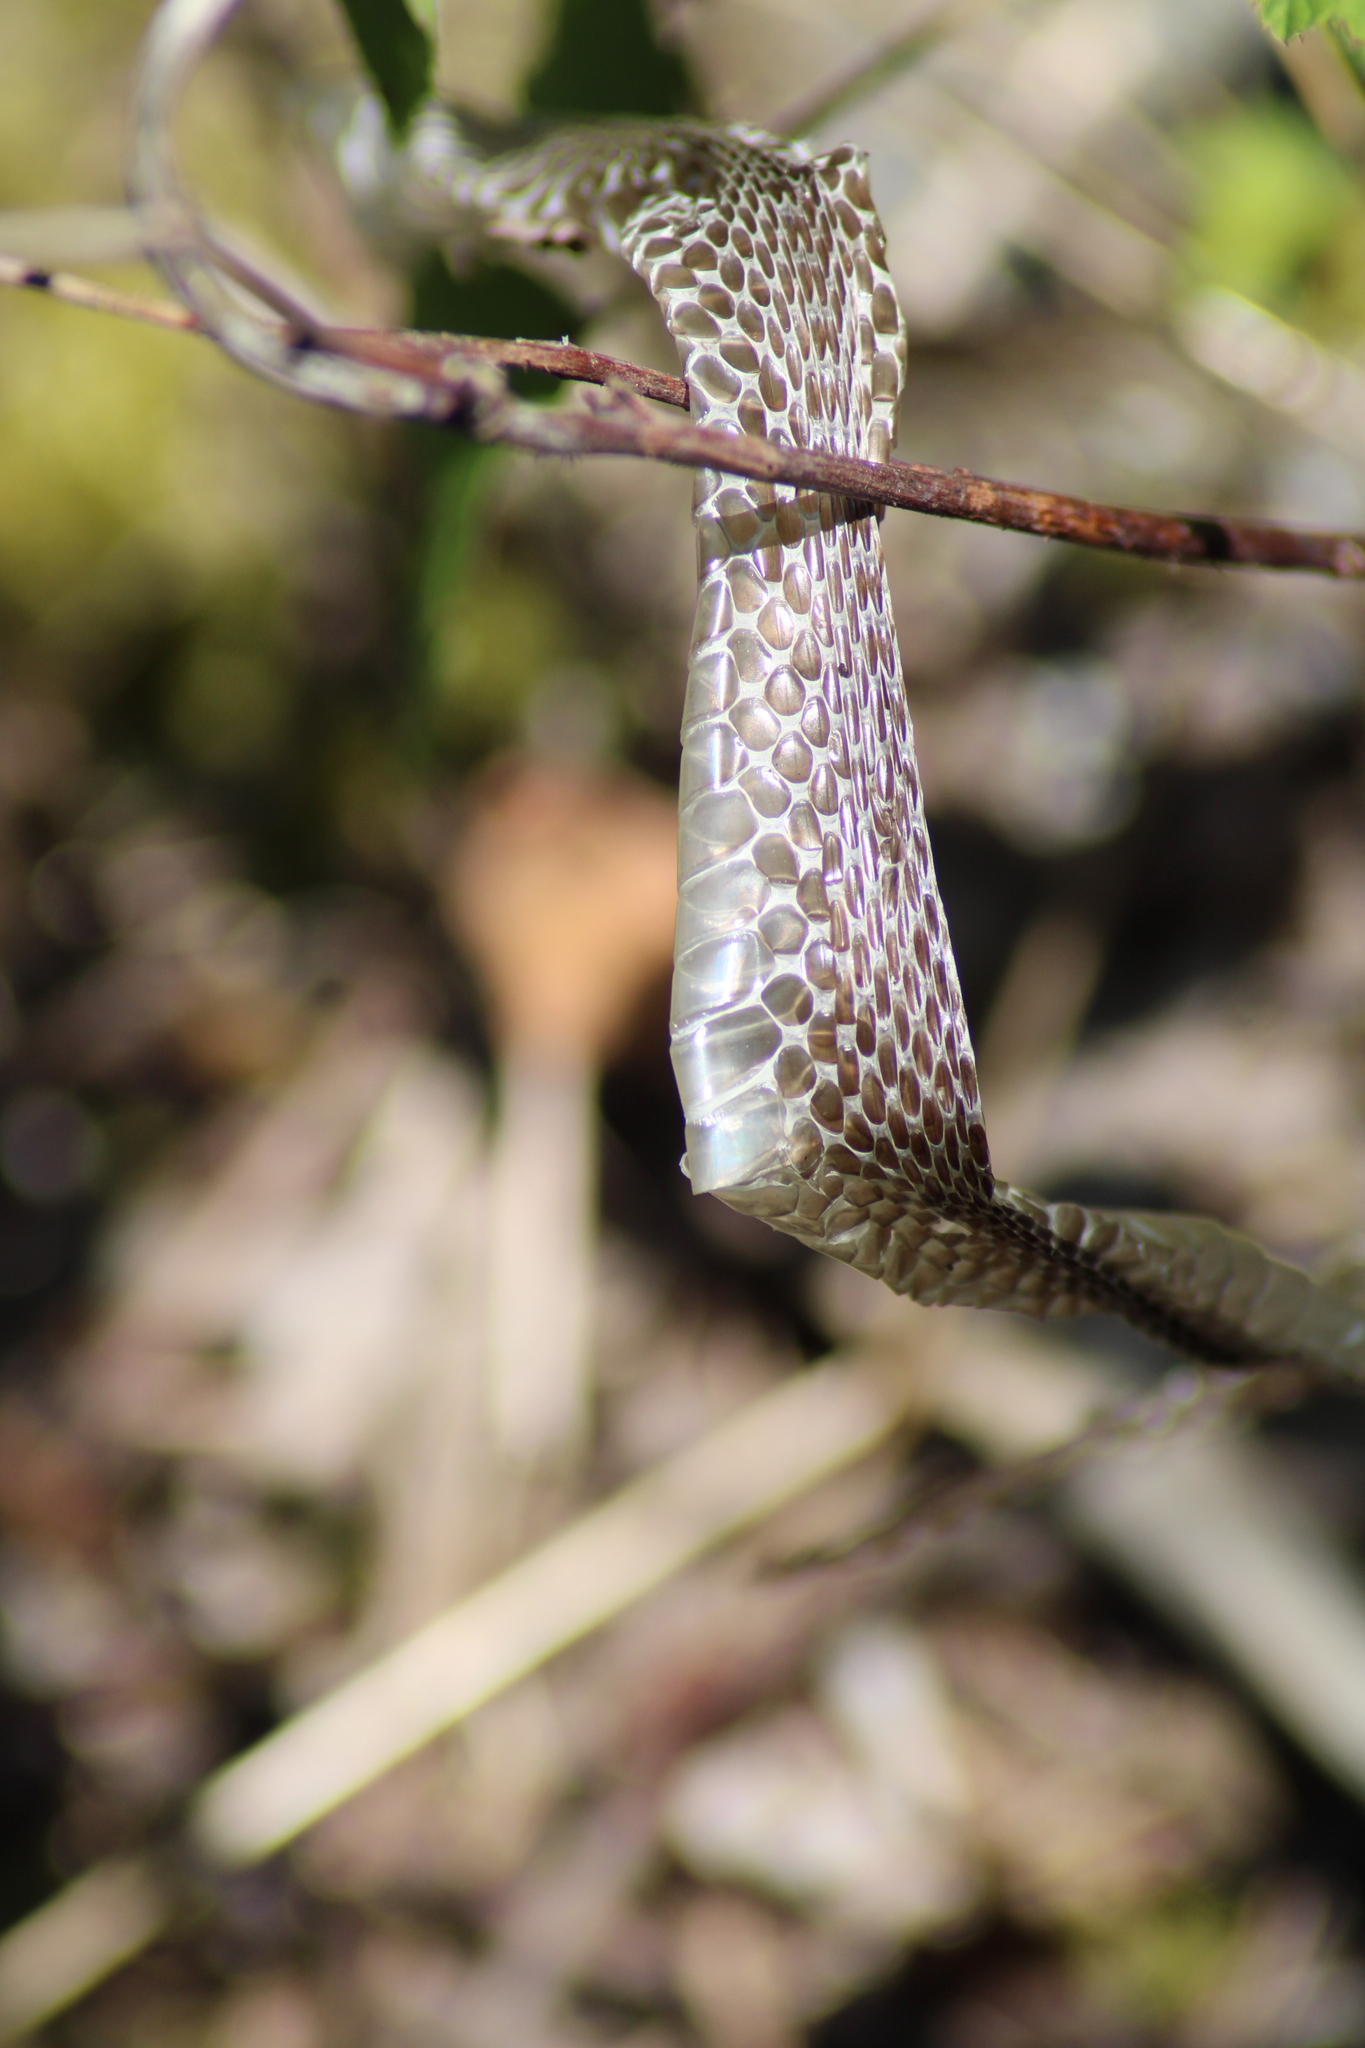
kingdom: Animalia
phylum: Chordata
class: Squamata
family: Colubridae
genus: Natrix
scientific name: Natrix natrix
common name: Grass snake
